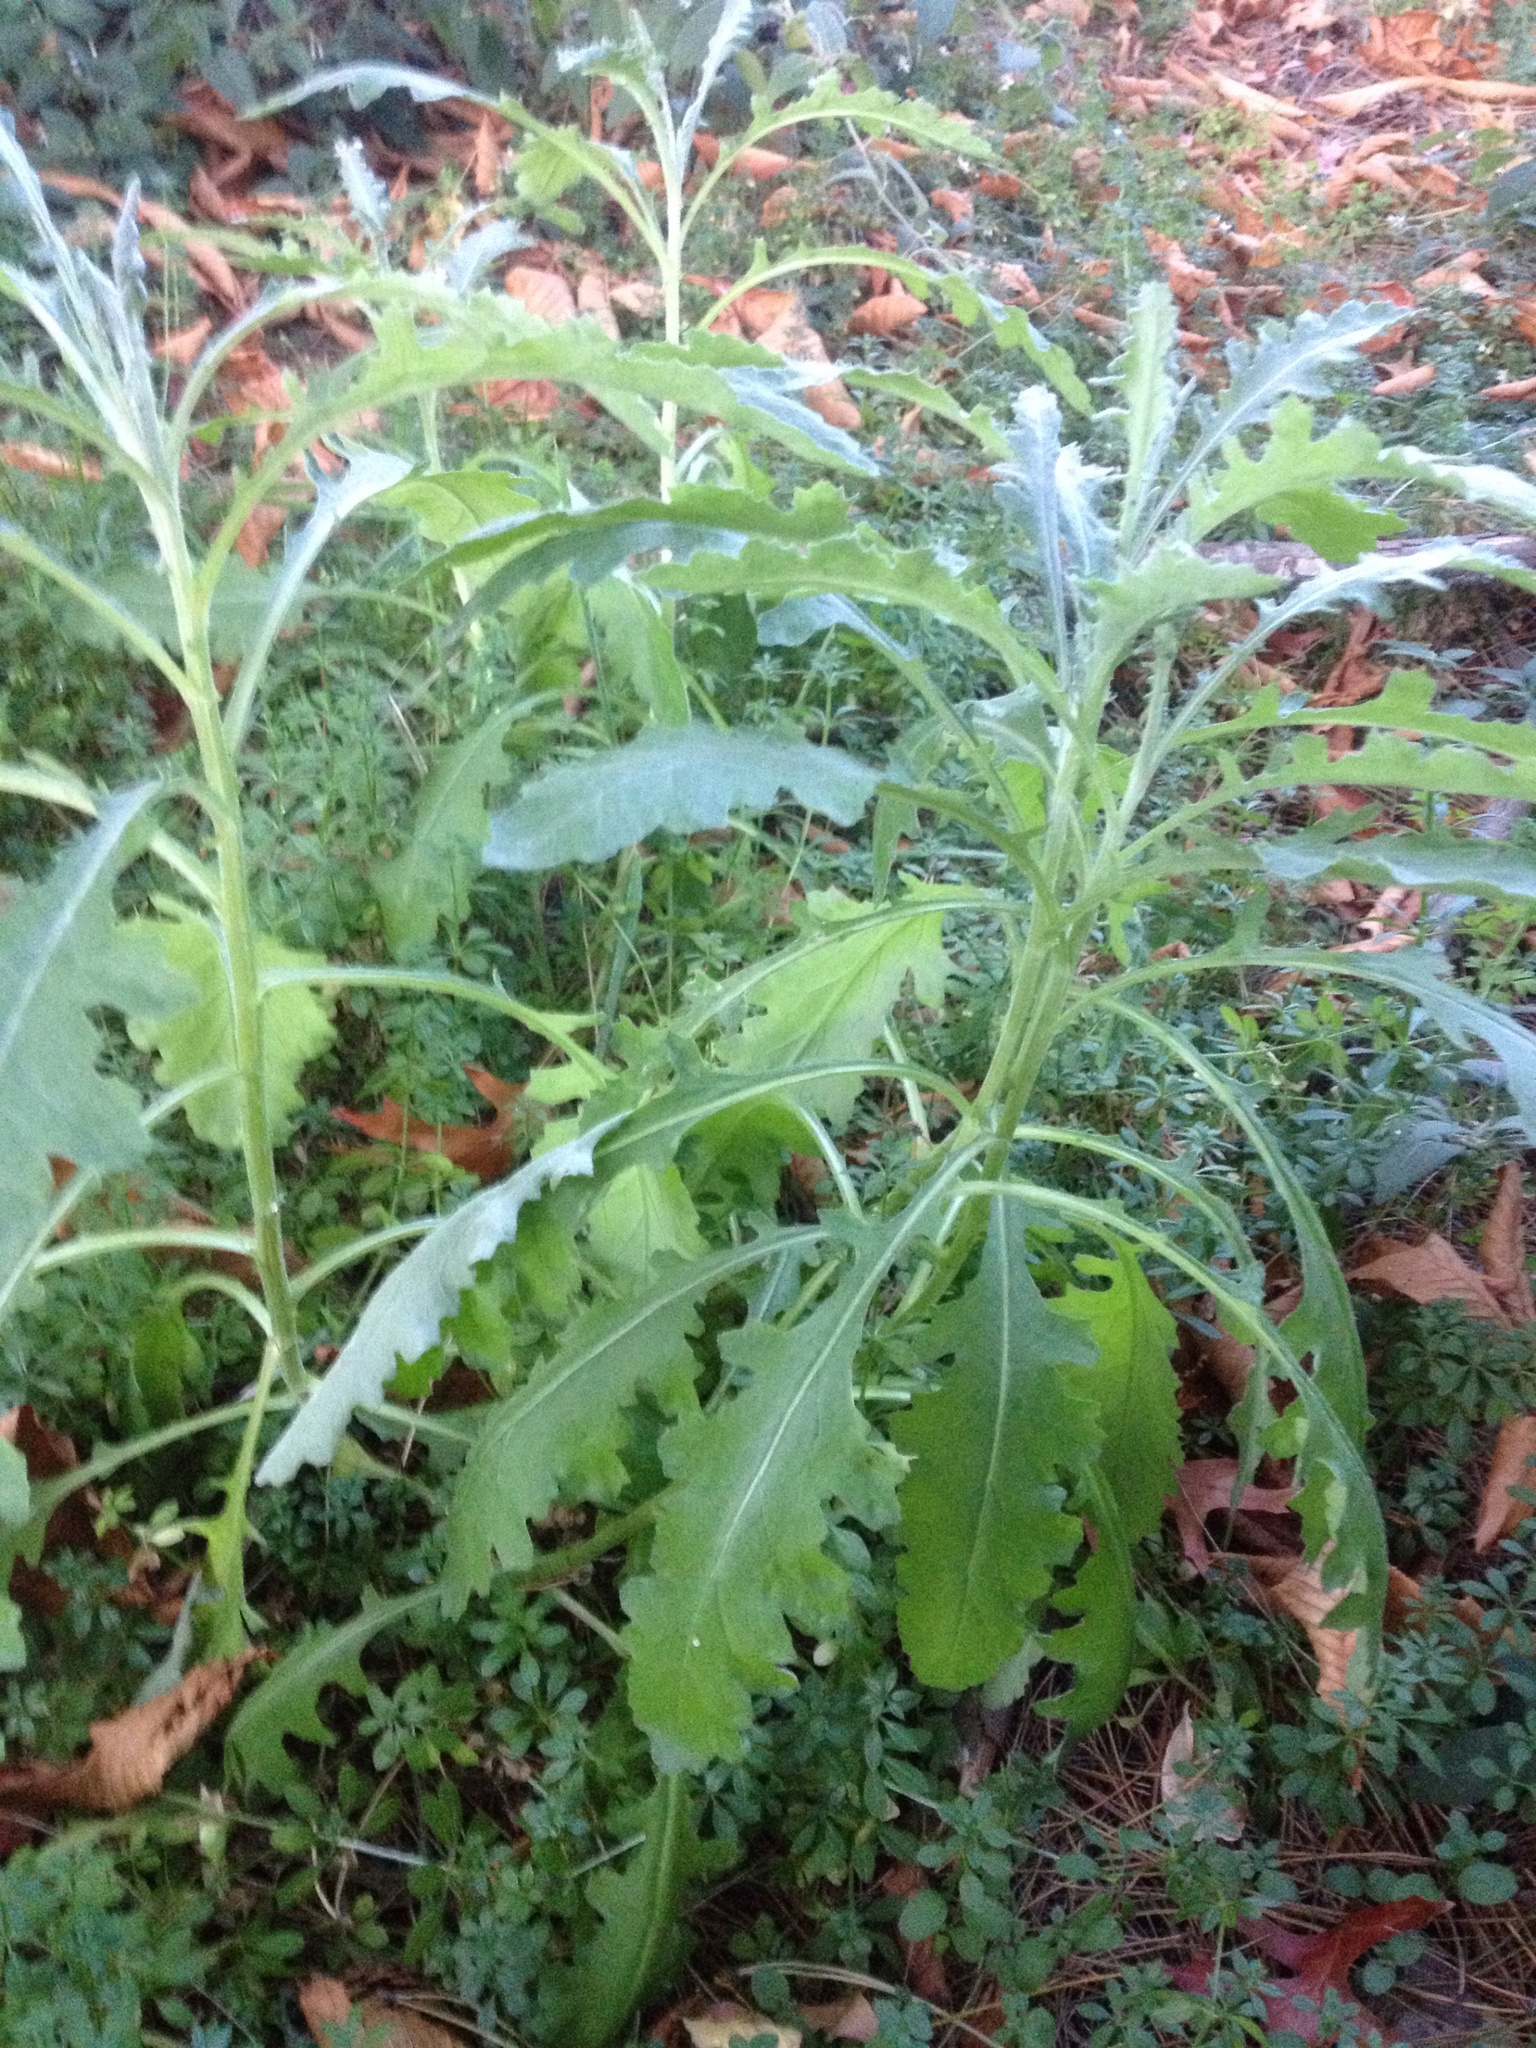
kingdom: Plantae
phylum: Tracheophyta
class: Magnoliopsida
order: Asterales
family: Asteraceae
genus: Senecio
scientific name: Senecio glomeratus
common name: Cutleaf burnweed
